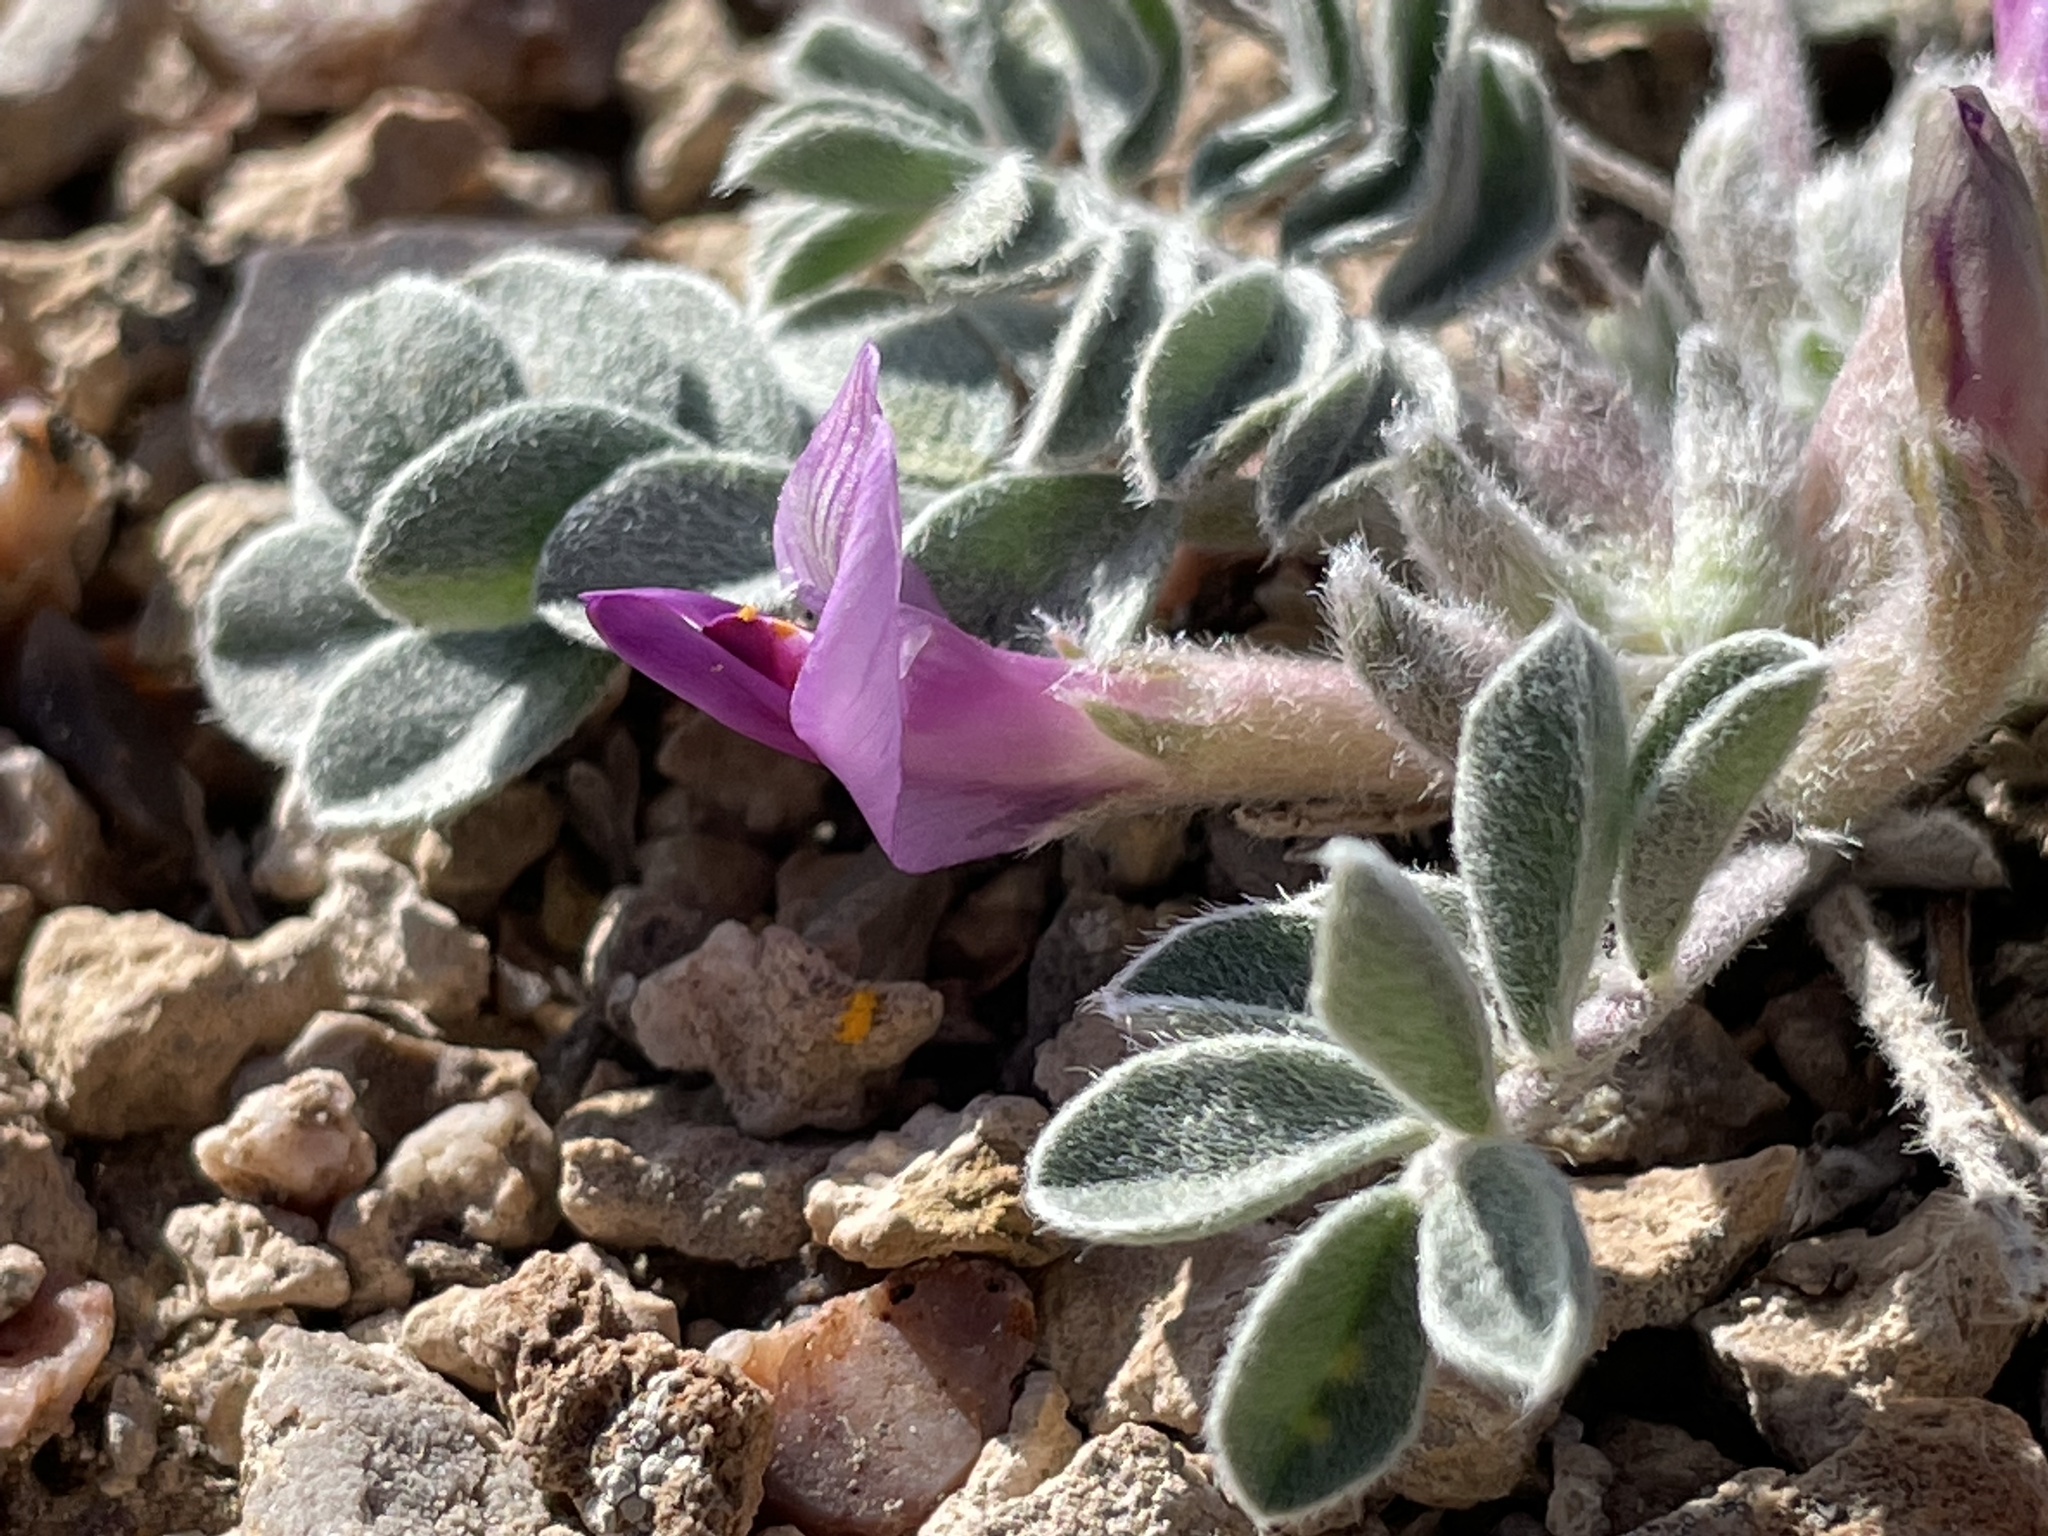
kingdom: Plantae
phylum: Tracheophyta
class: Magnoliopsida
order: Fabales
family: Fabaceae
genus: Astragalus
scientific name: Astragalus newberryi
